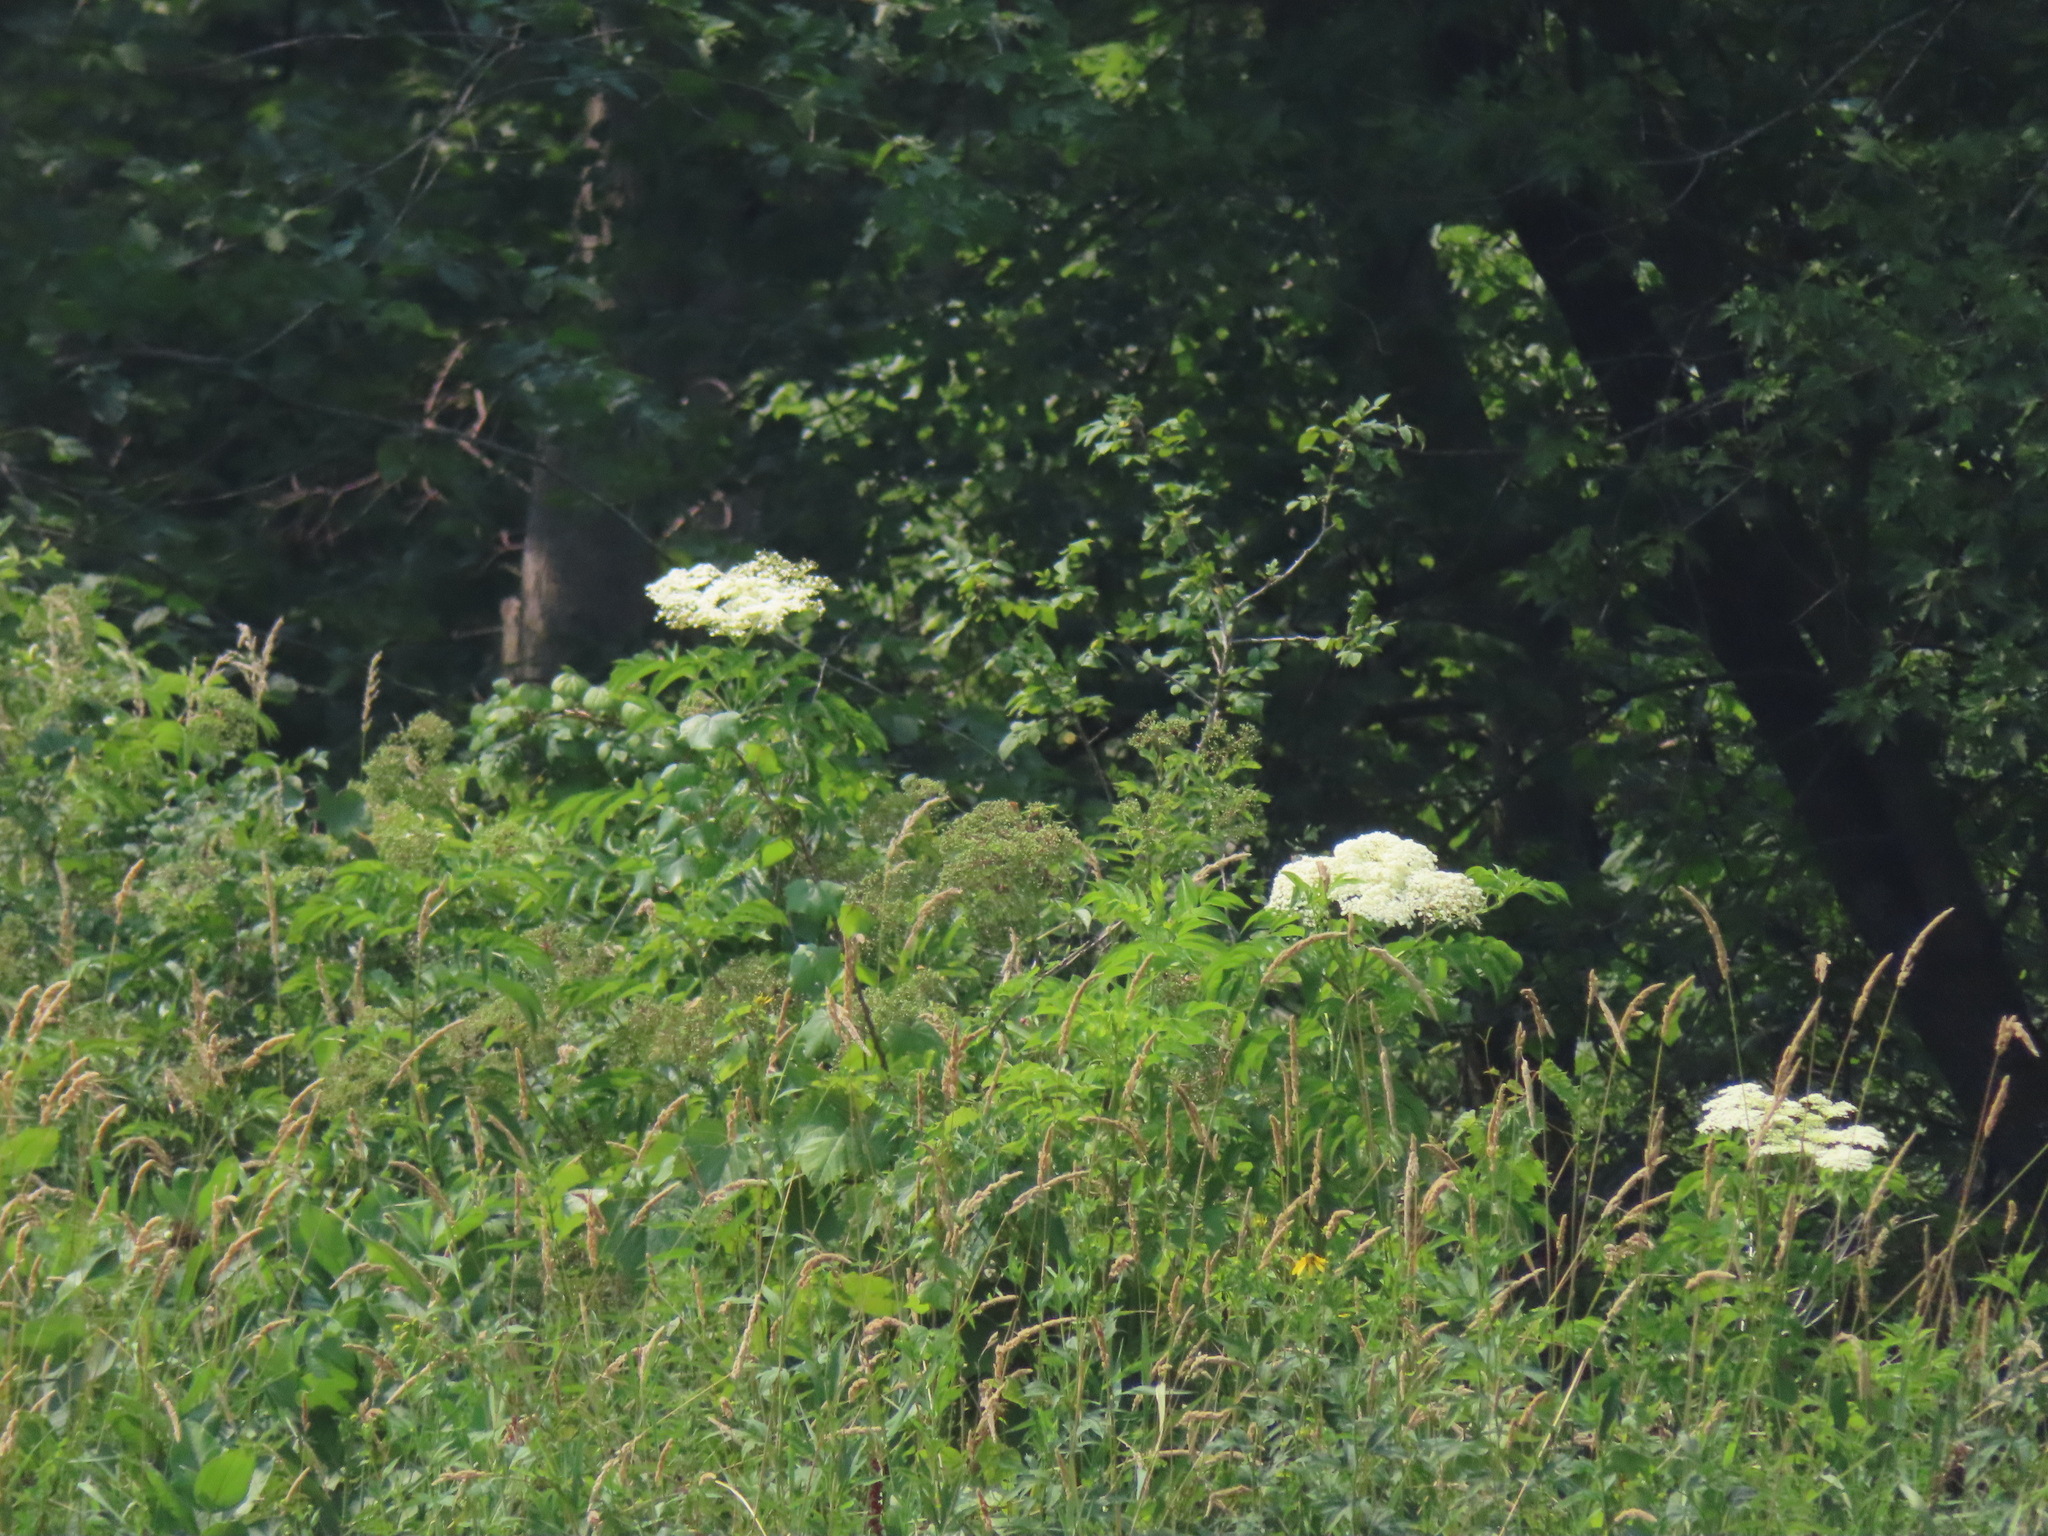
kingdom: Plantae
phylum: Tracheophyta
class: Magnoliopsida
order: Dipsacales
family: Viburnaceae
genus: Sambucus
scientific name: Sambucus canadensis
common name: American elder
